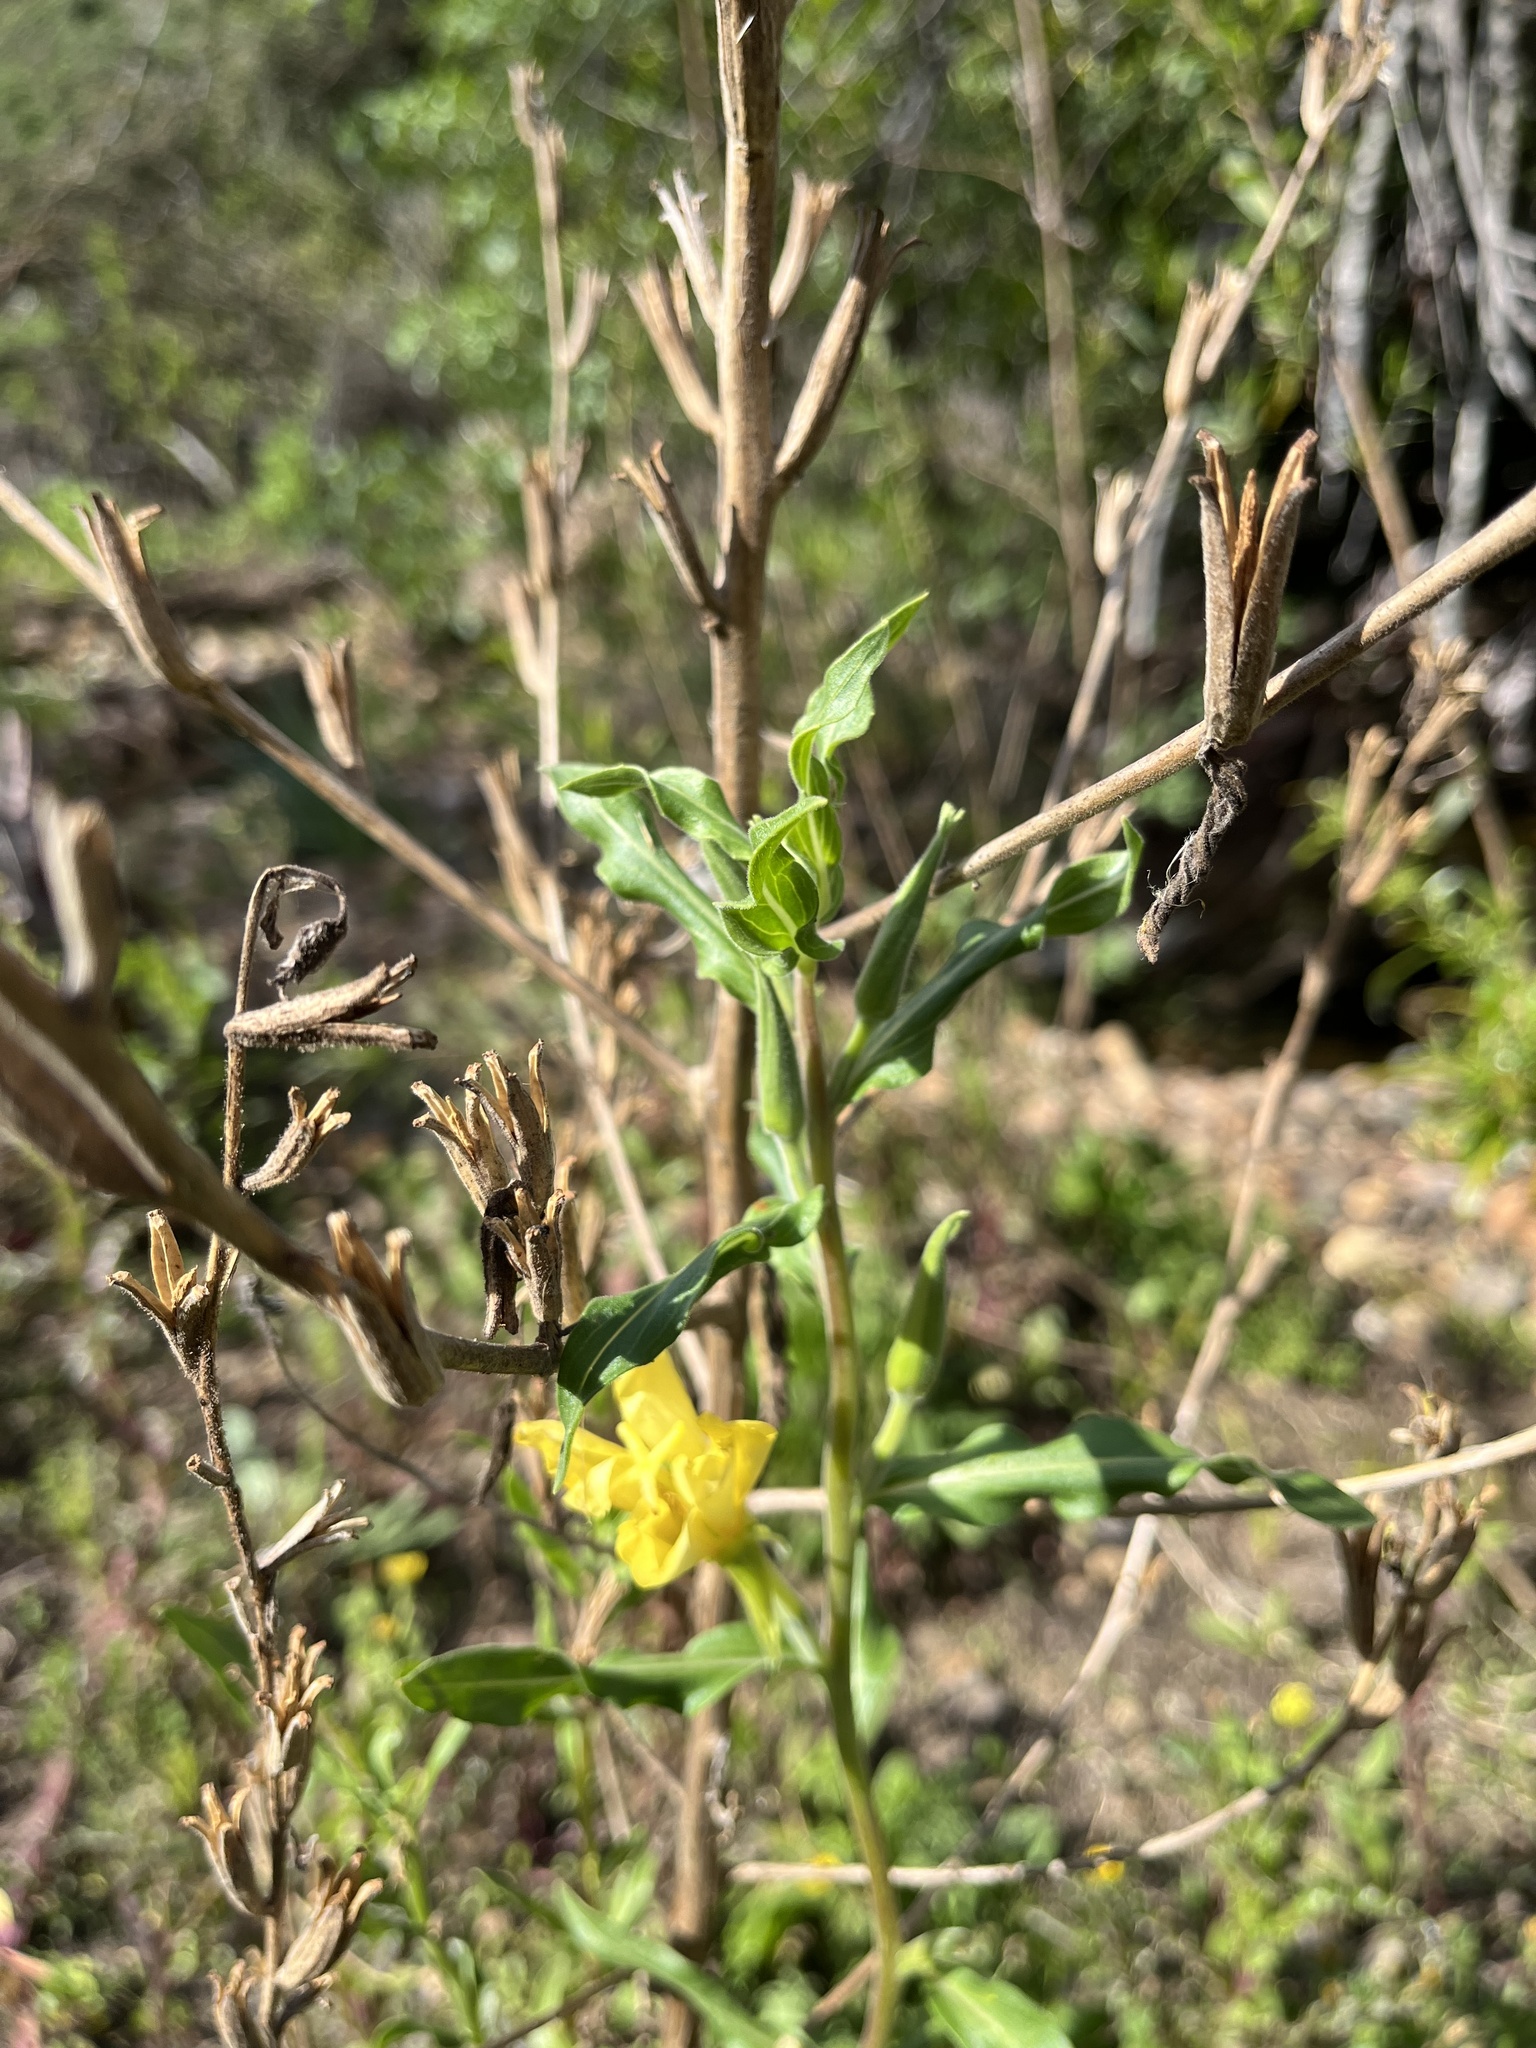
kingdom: Plantae
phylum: Tracheophyta
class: Magnoliopsida
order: Myrtales
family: Onagraceae
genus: Oenothera
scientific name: Oenothera elata
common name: Hooker's evening-primrose
